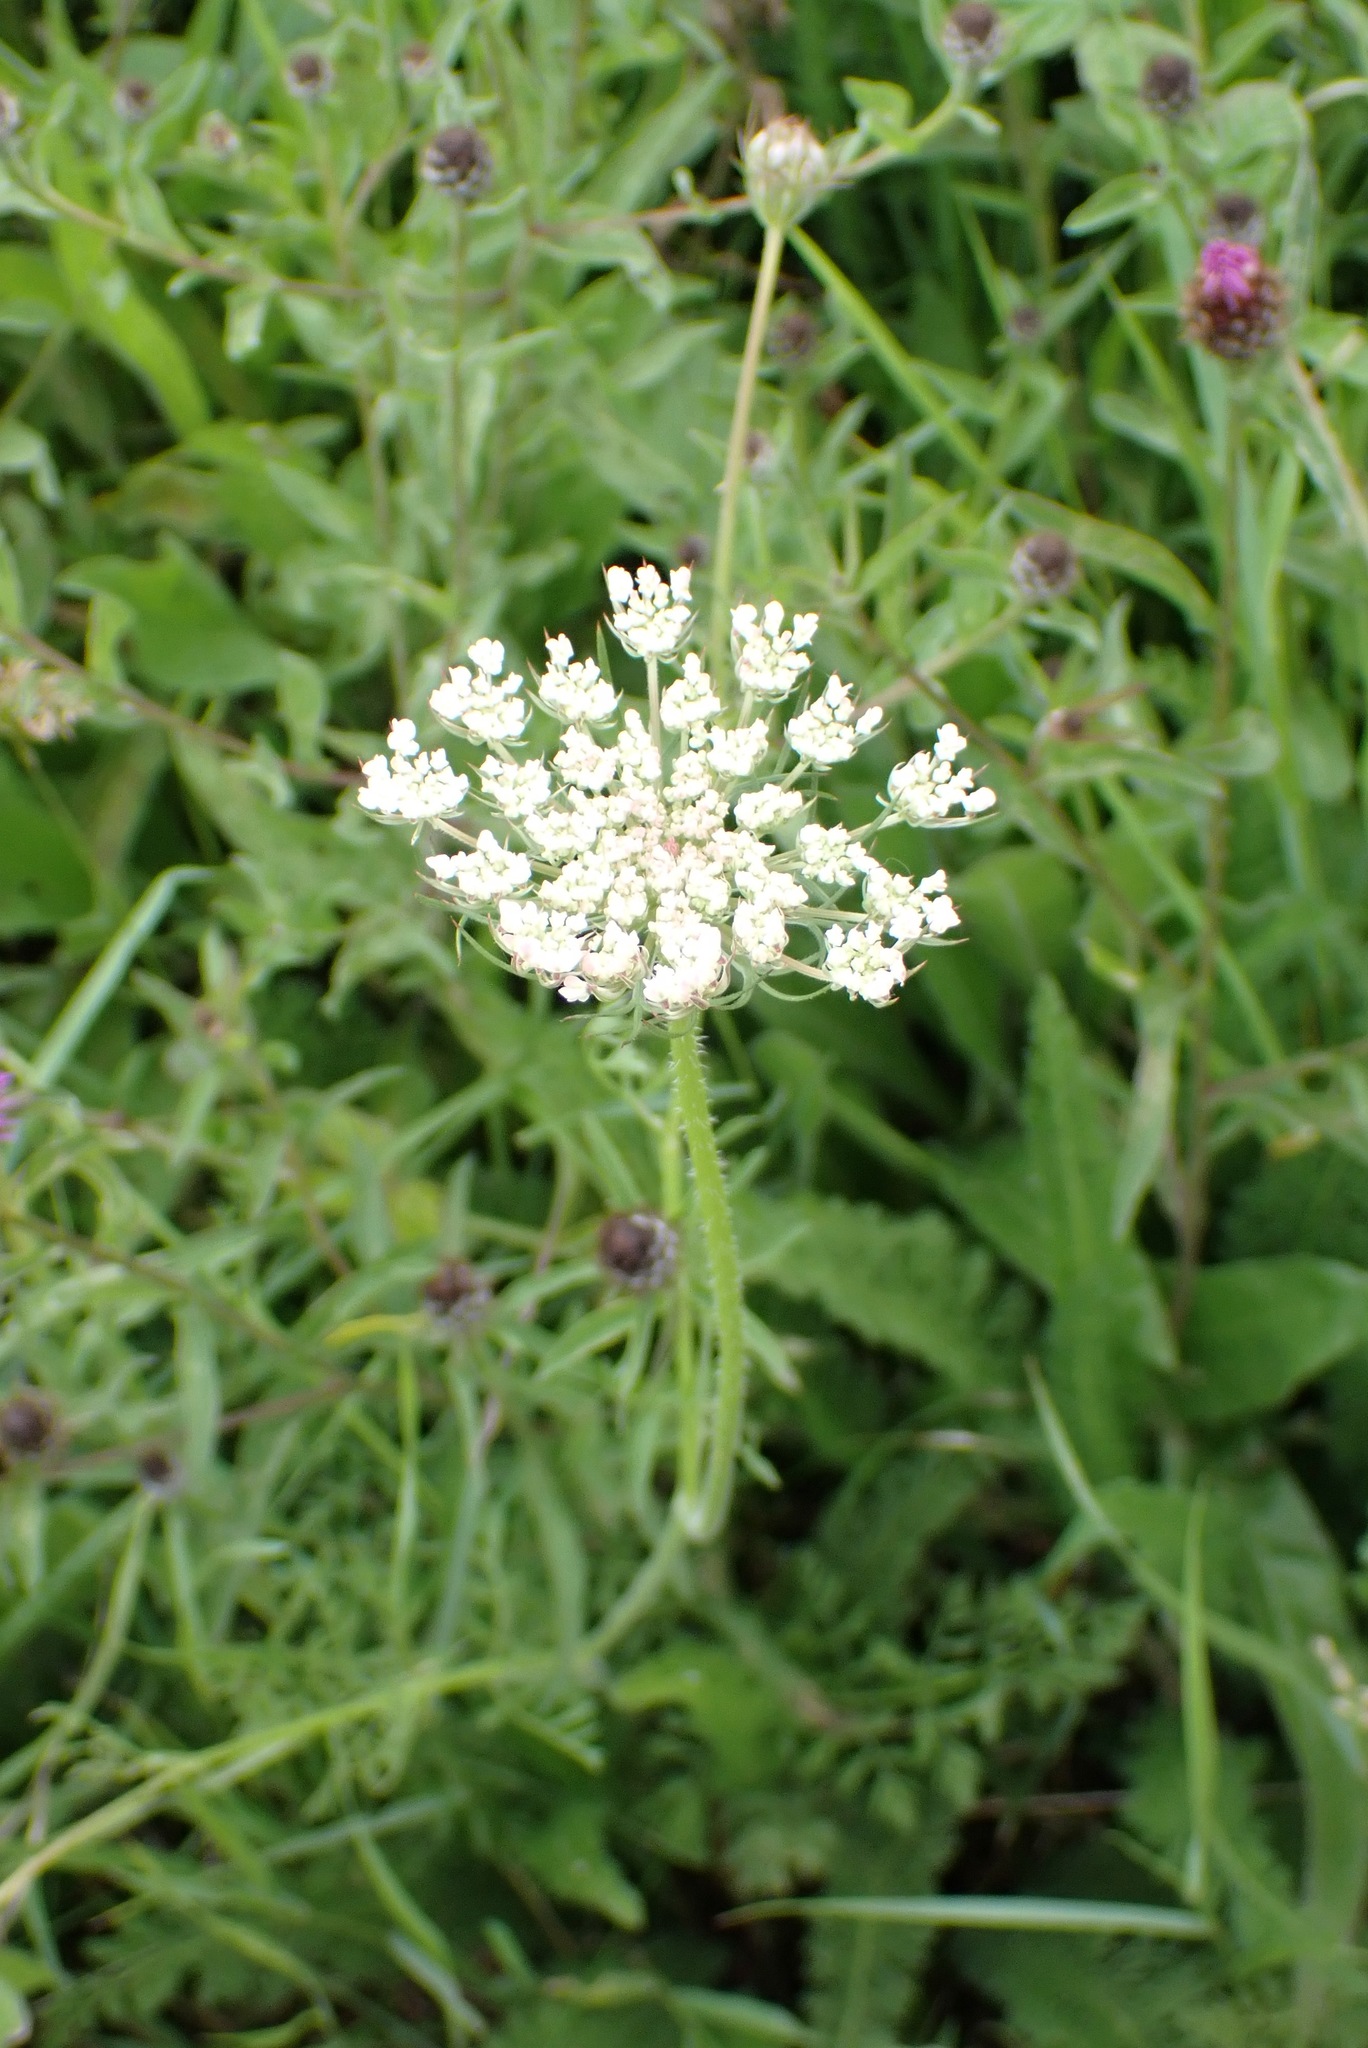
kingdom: Plantae
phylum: Tracheophyta
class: Magnoliopsida
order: Apiales
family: Apiaceae
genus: Daucus
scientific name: Daucus carota
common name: Wild carrot
